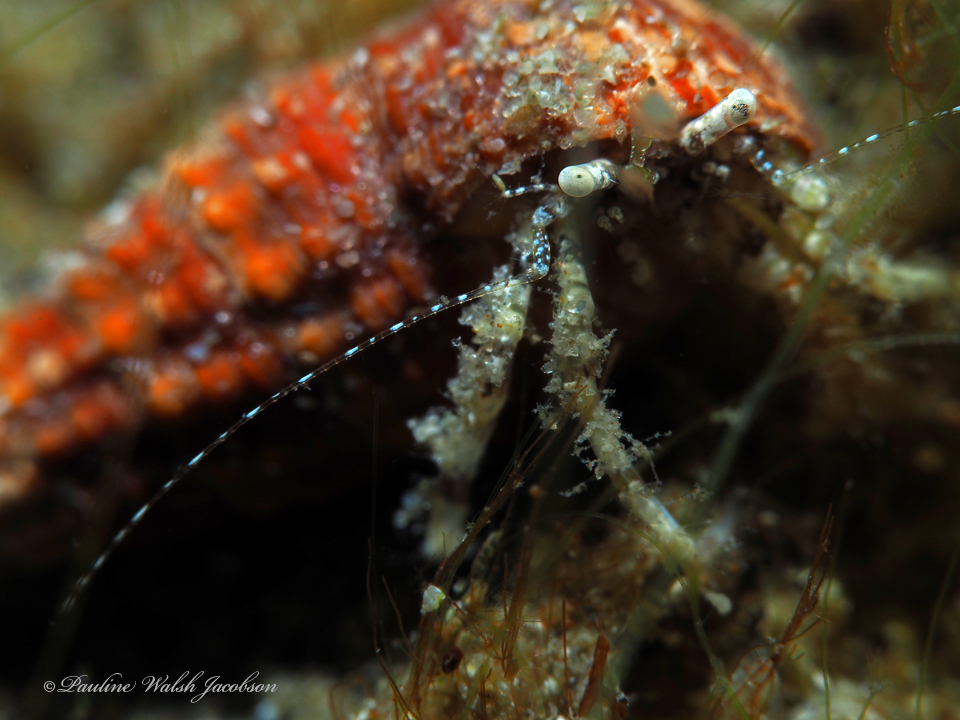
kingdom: Animalia
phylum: Arthropoda
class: Malacostraca
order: Decapoda
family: Paguridae
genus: Pagurus
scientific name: Pagurus maclaughlinae
